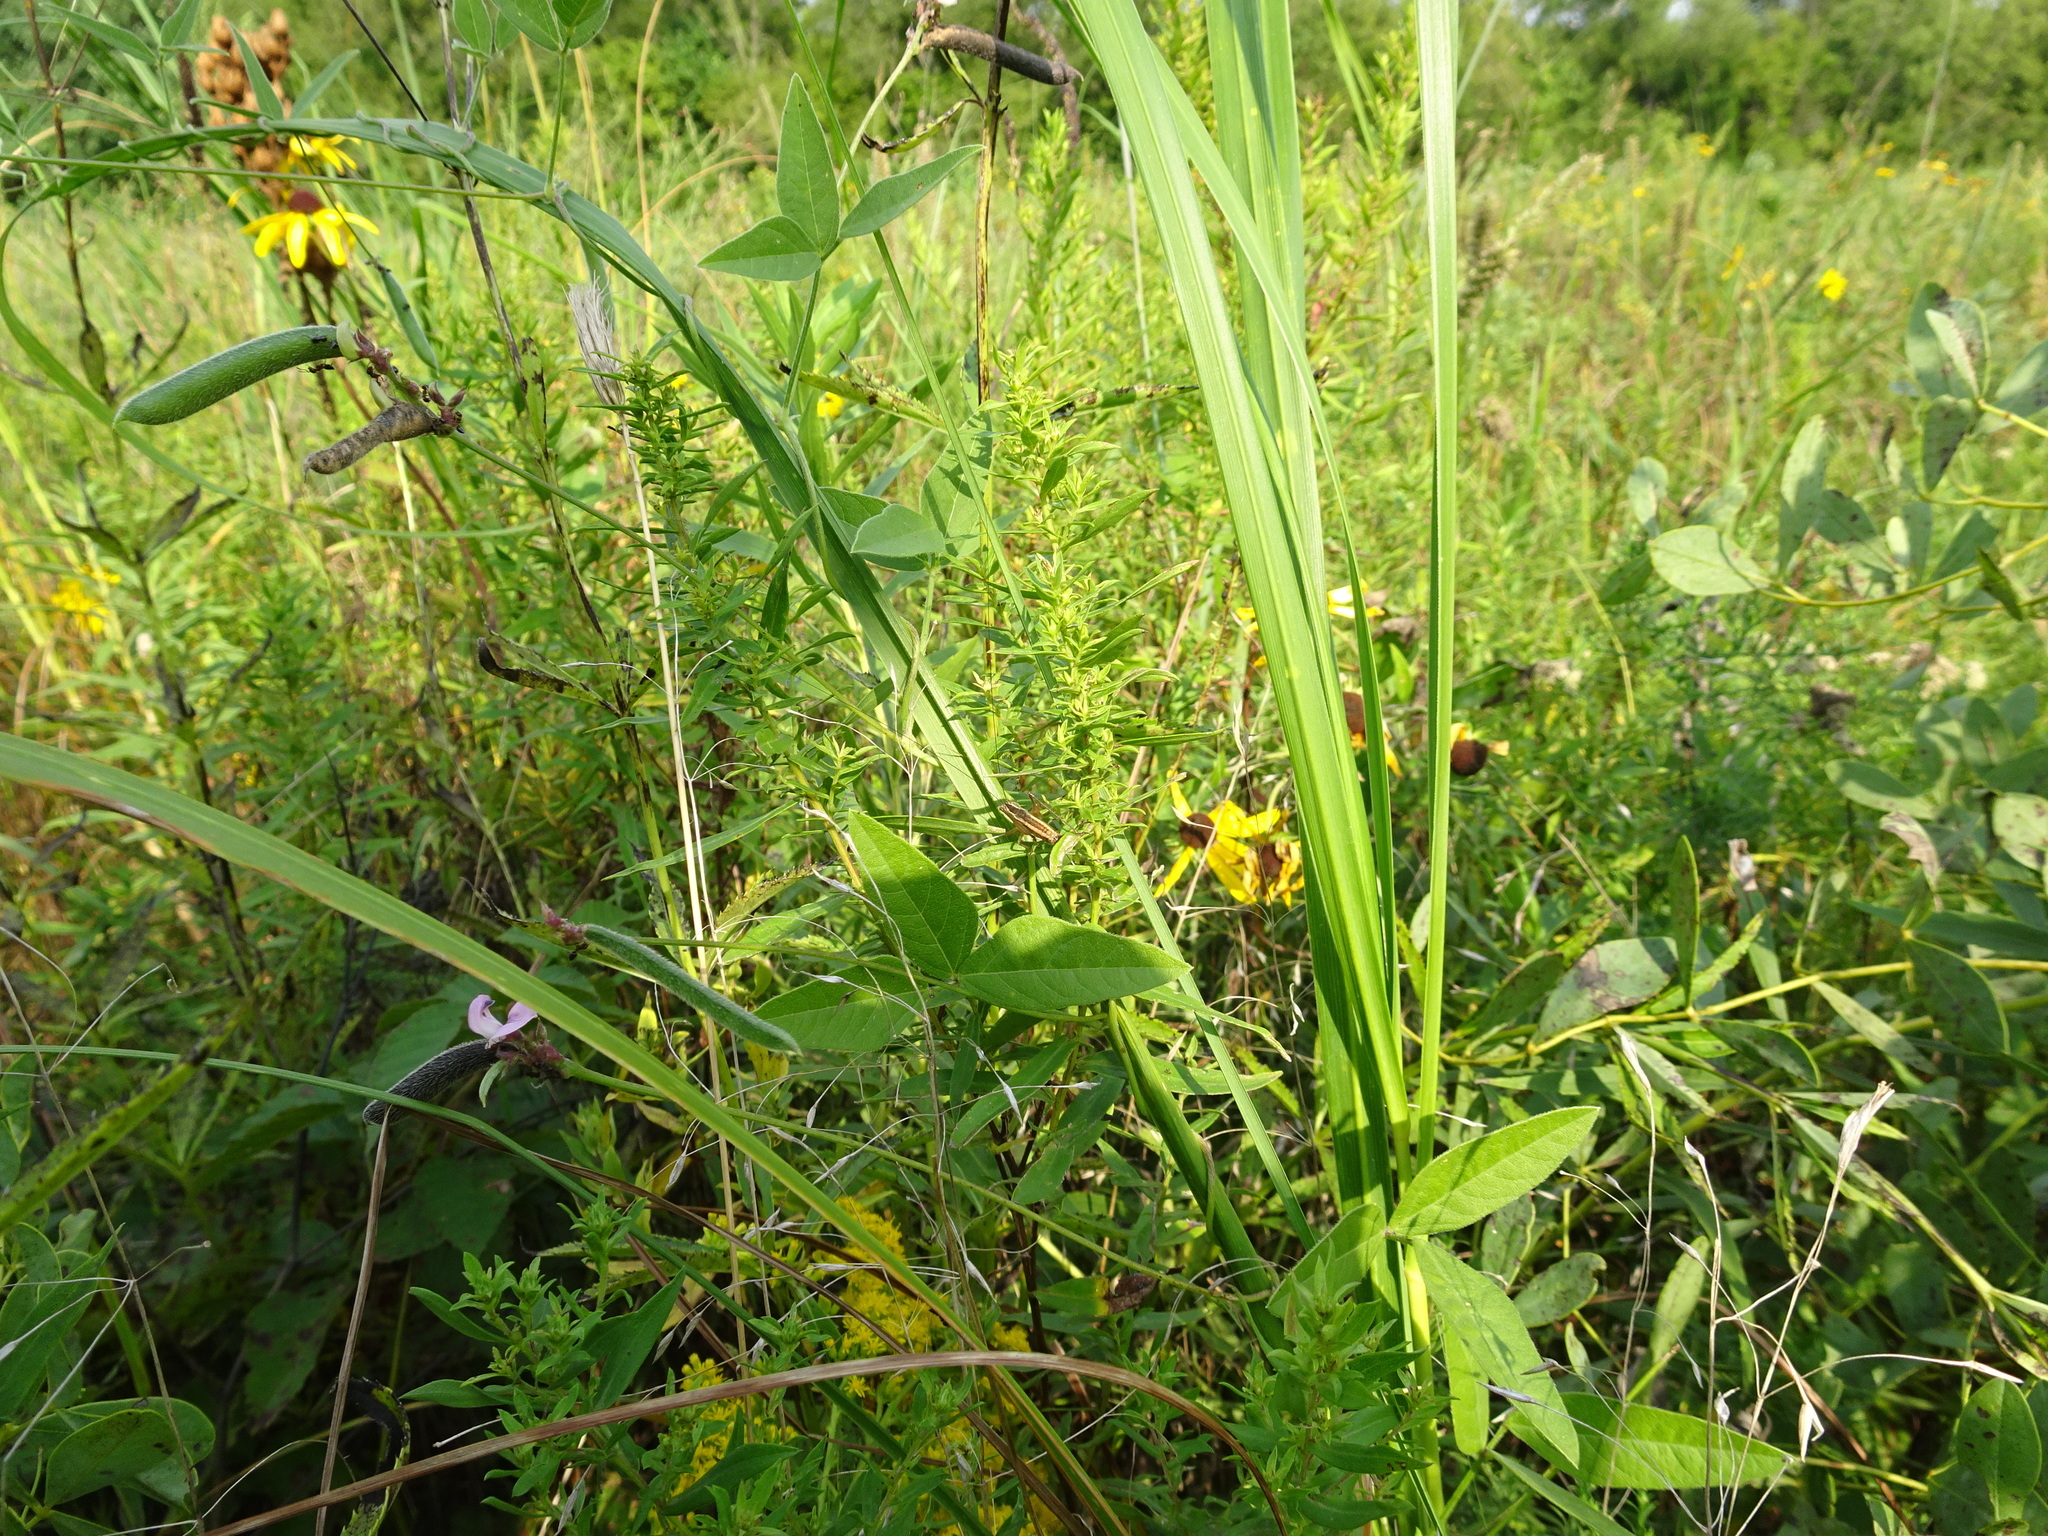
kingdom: Plantae
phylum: Tracheophyta
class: Magnoliopsida
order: Fabales
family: Fabaceae
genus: Strophostyles
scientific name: Strophostyles leiosperma
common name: Smooth-seed wild bean
